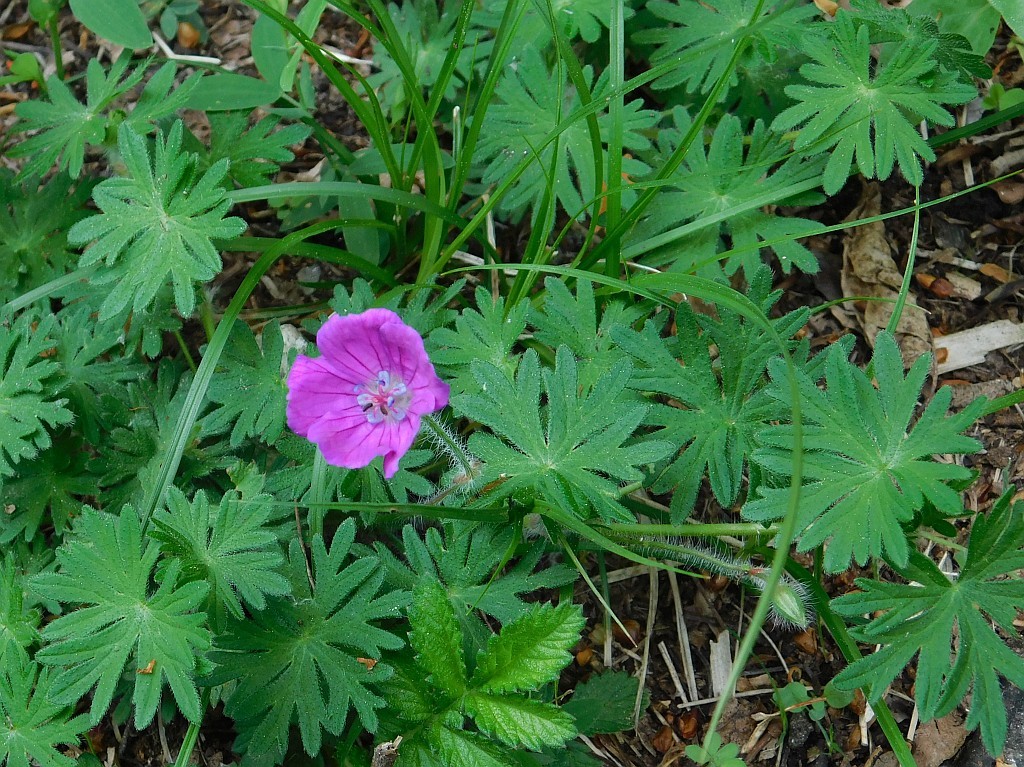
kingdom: Plantae
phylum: Tracheophyta
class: Magnoliopsida
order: Geraniales
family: Geraniaceae
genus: Geranium
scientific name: Geranium sanguineum
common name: Bloody crane's-bill
